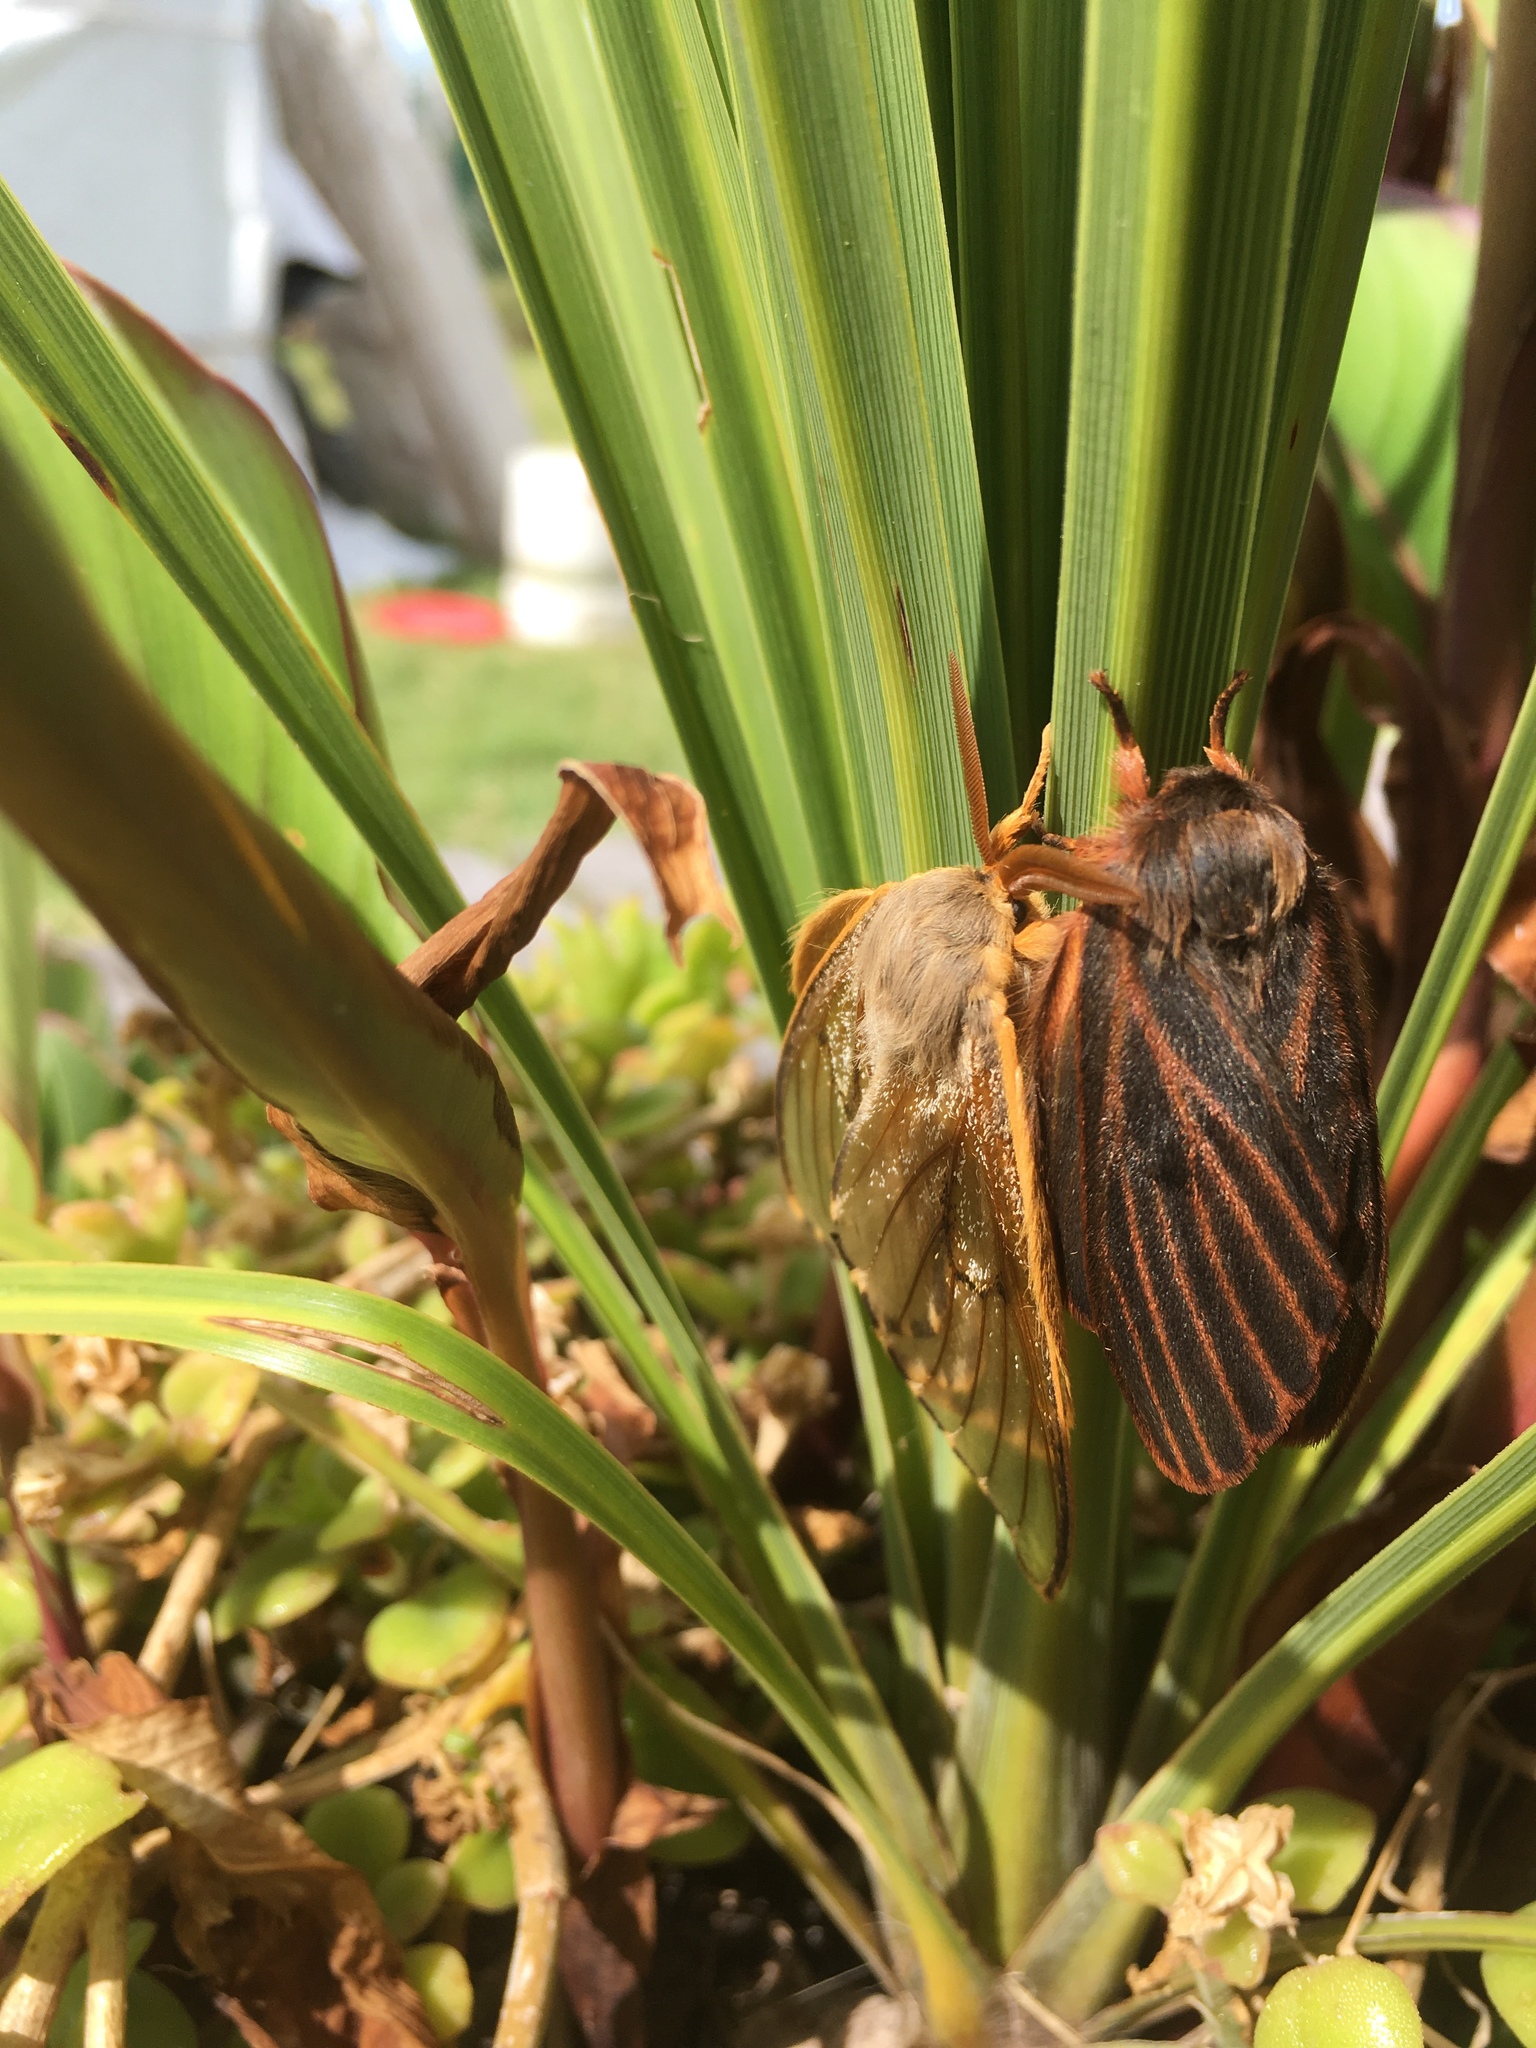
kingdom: Animalia
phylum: Arthropoda
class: Insecta
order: Lepidoptera
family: Saturniidae
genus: Heliconisa
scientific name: Heliconisa pagenstecheri
